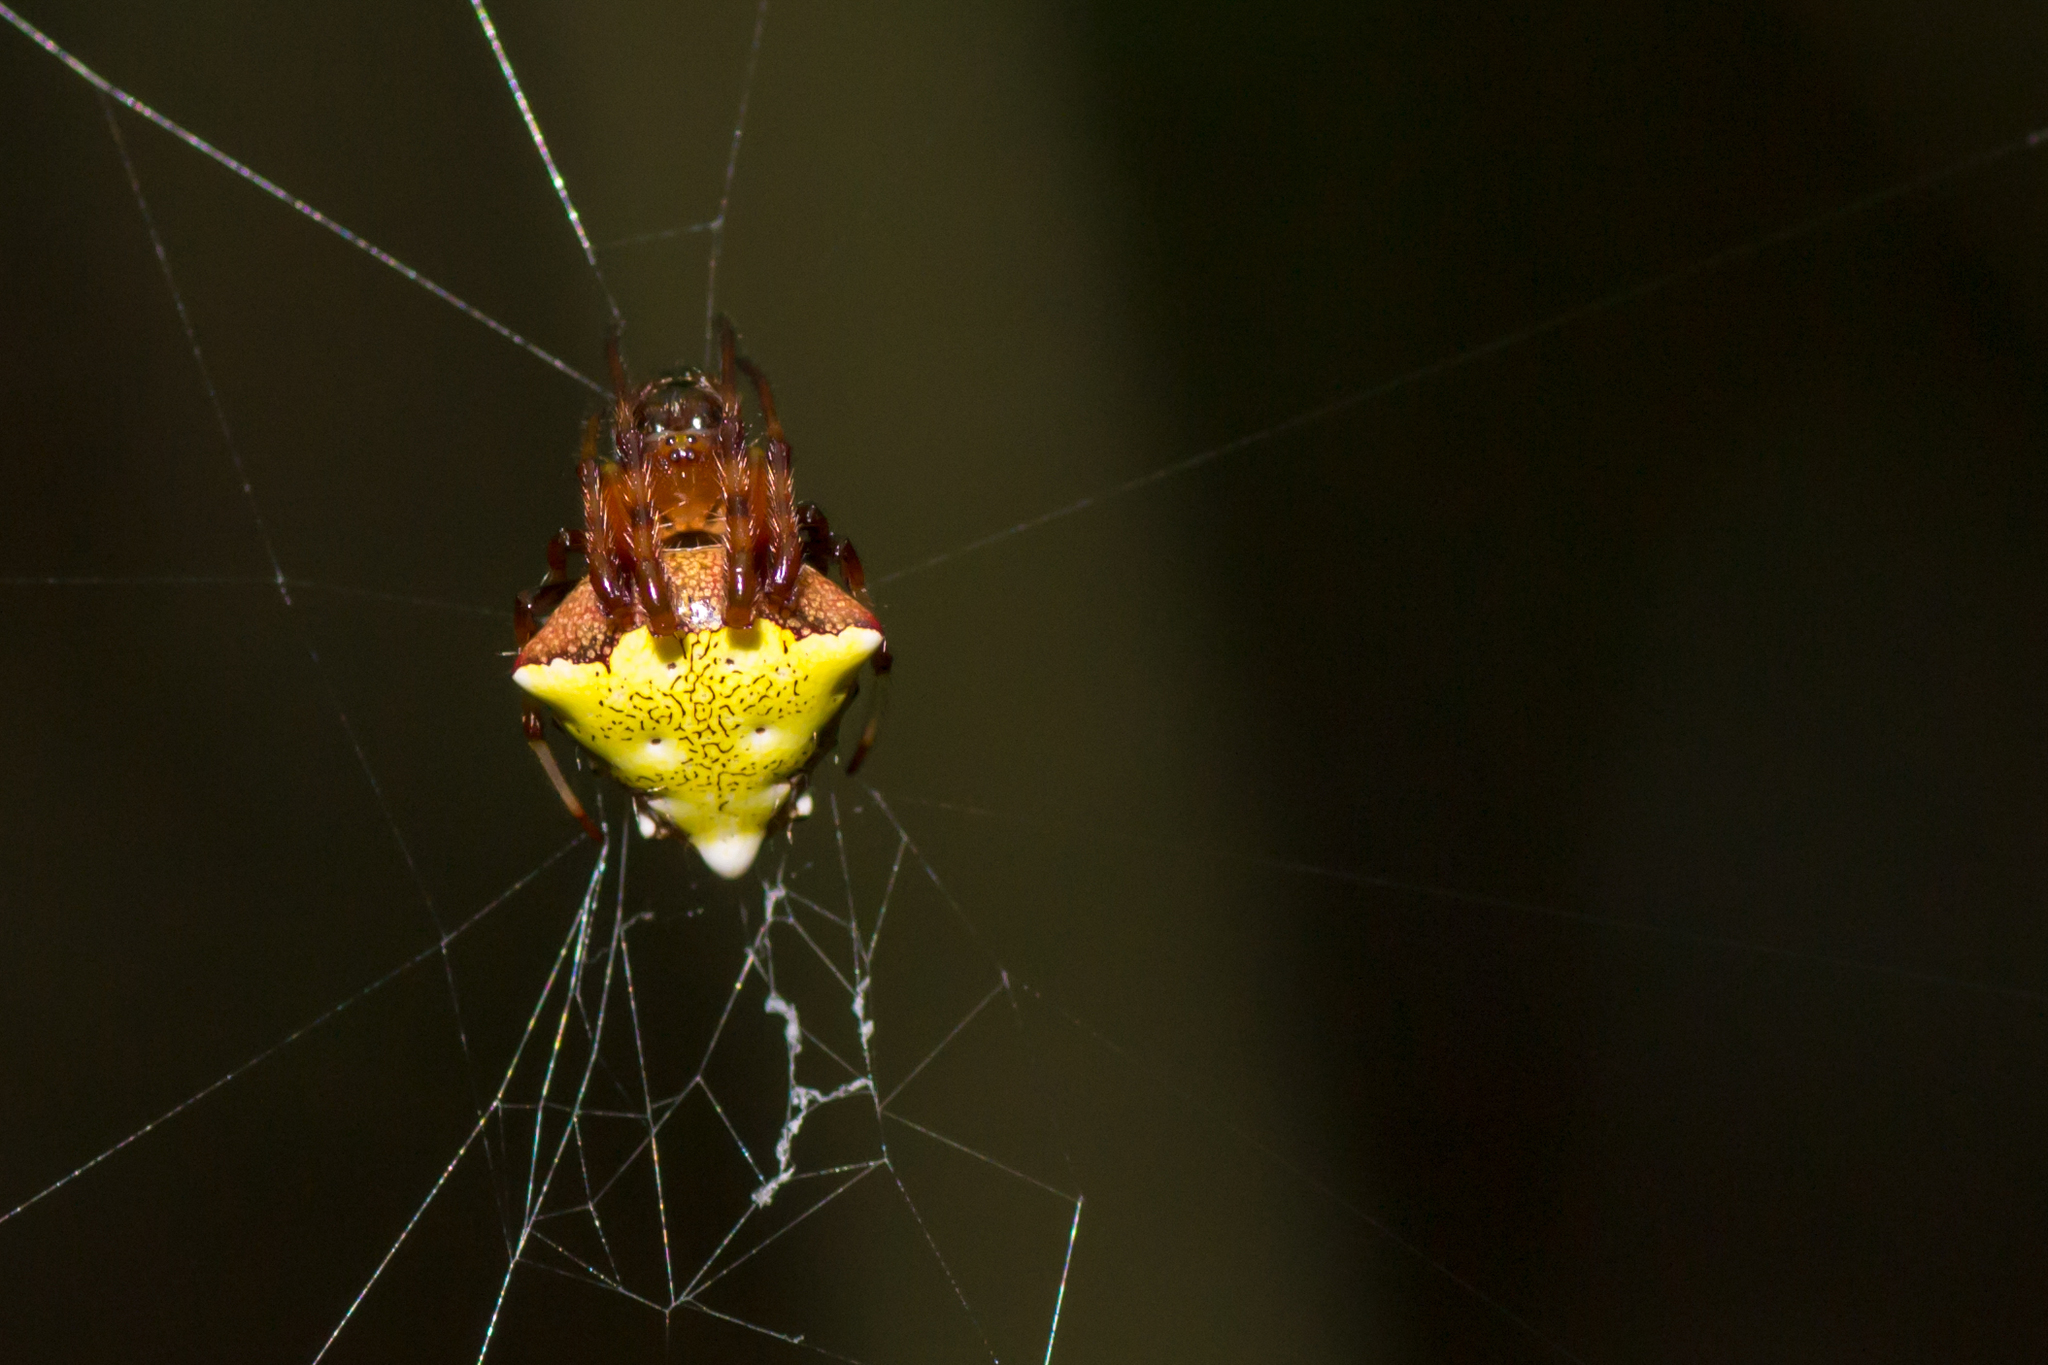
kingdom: Animalia
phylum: Arthropoda
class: Arachnida
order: Araneae
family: Araneidae
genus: Verrucosa
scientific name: Verrucosa arenata
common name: Orb weavers
